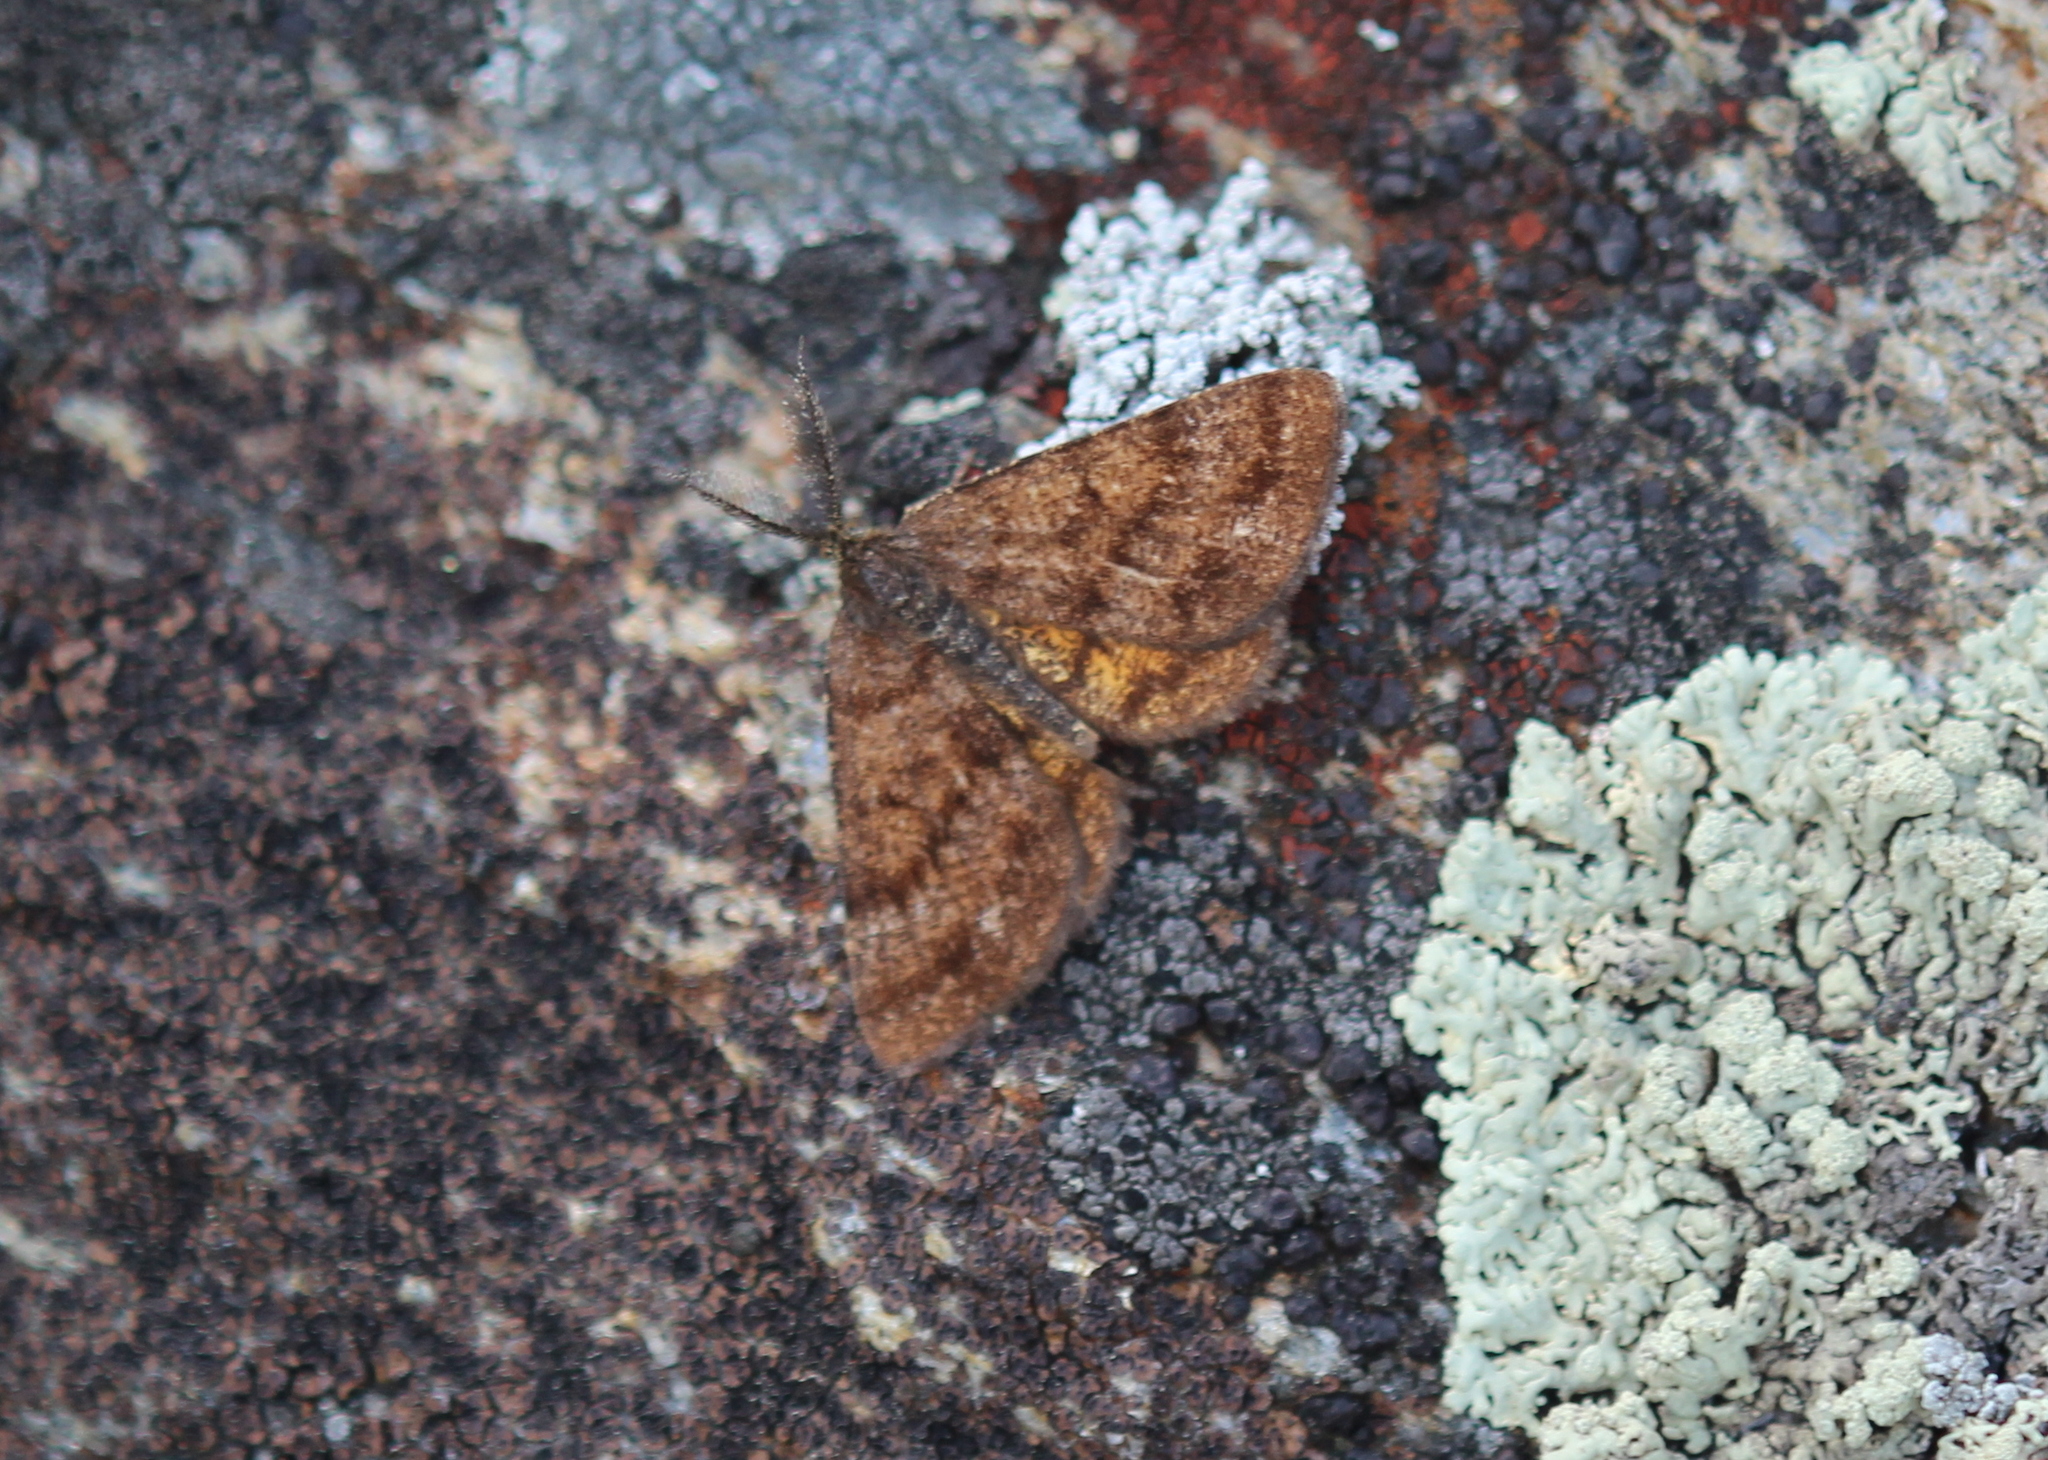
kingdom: Animalia
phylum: Arthropoda
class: Insecta
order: Lepidoptera
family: Geometridae
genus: Ematurga
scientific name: Ematurga amitaria
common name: Cranberry spanworm moth
